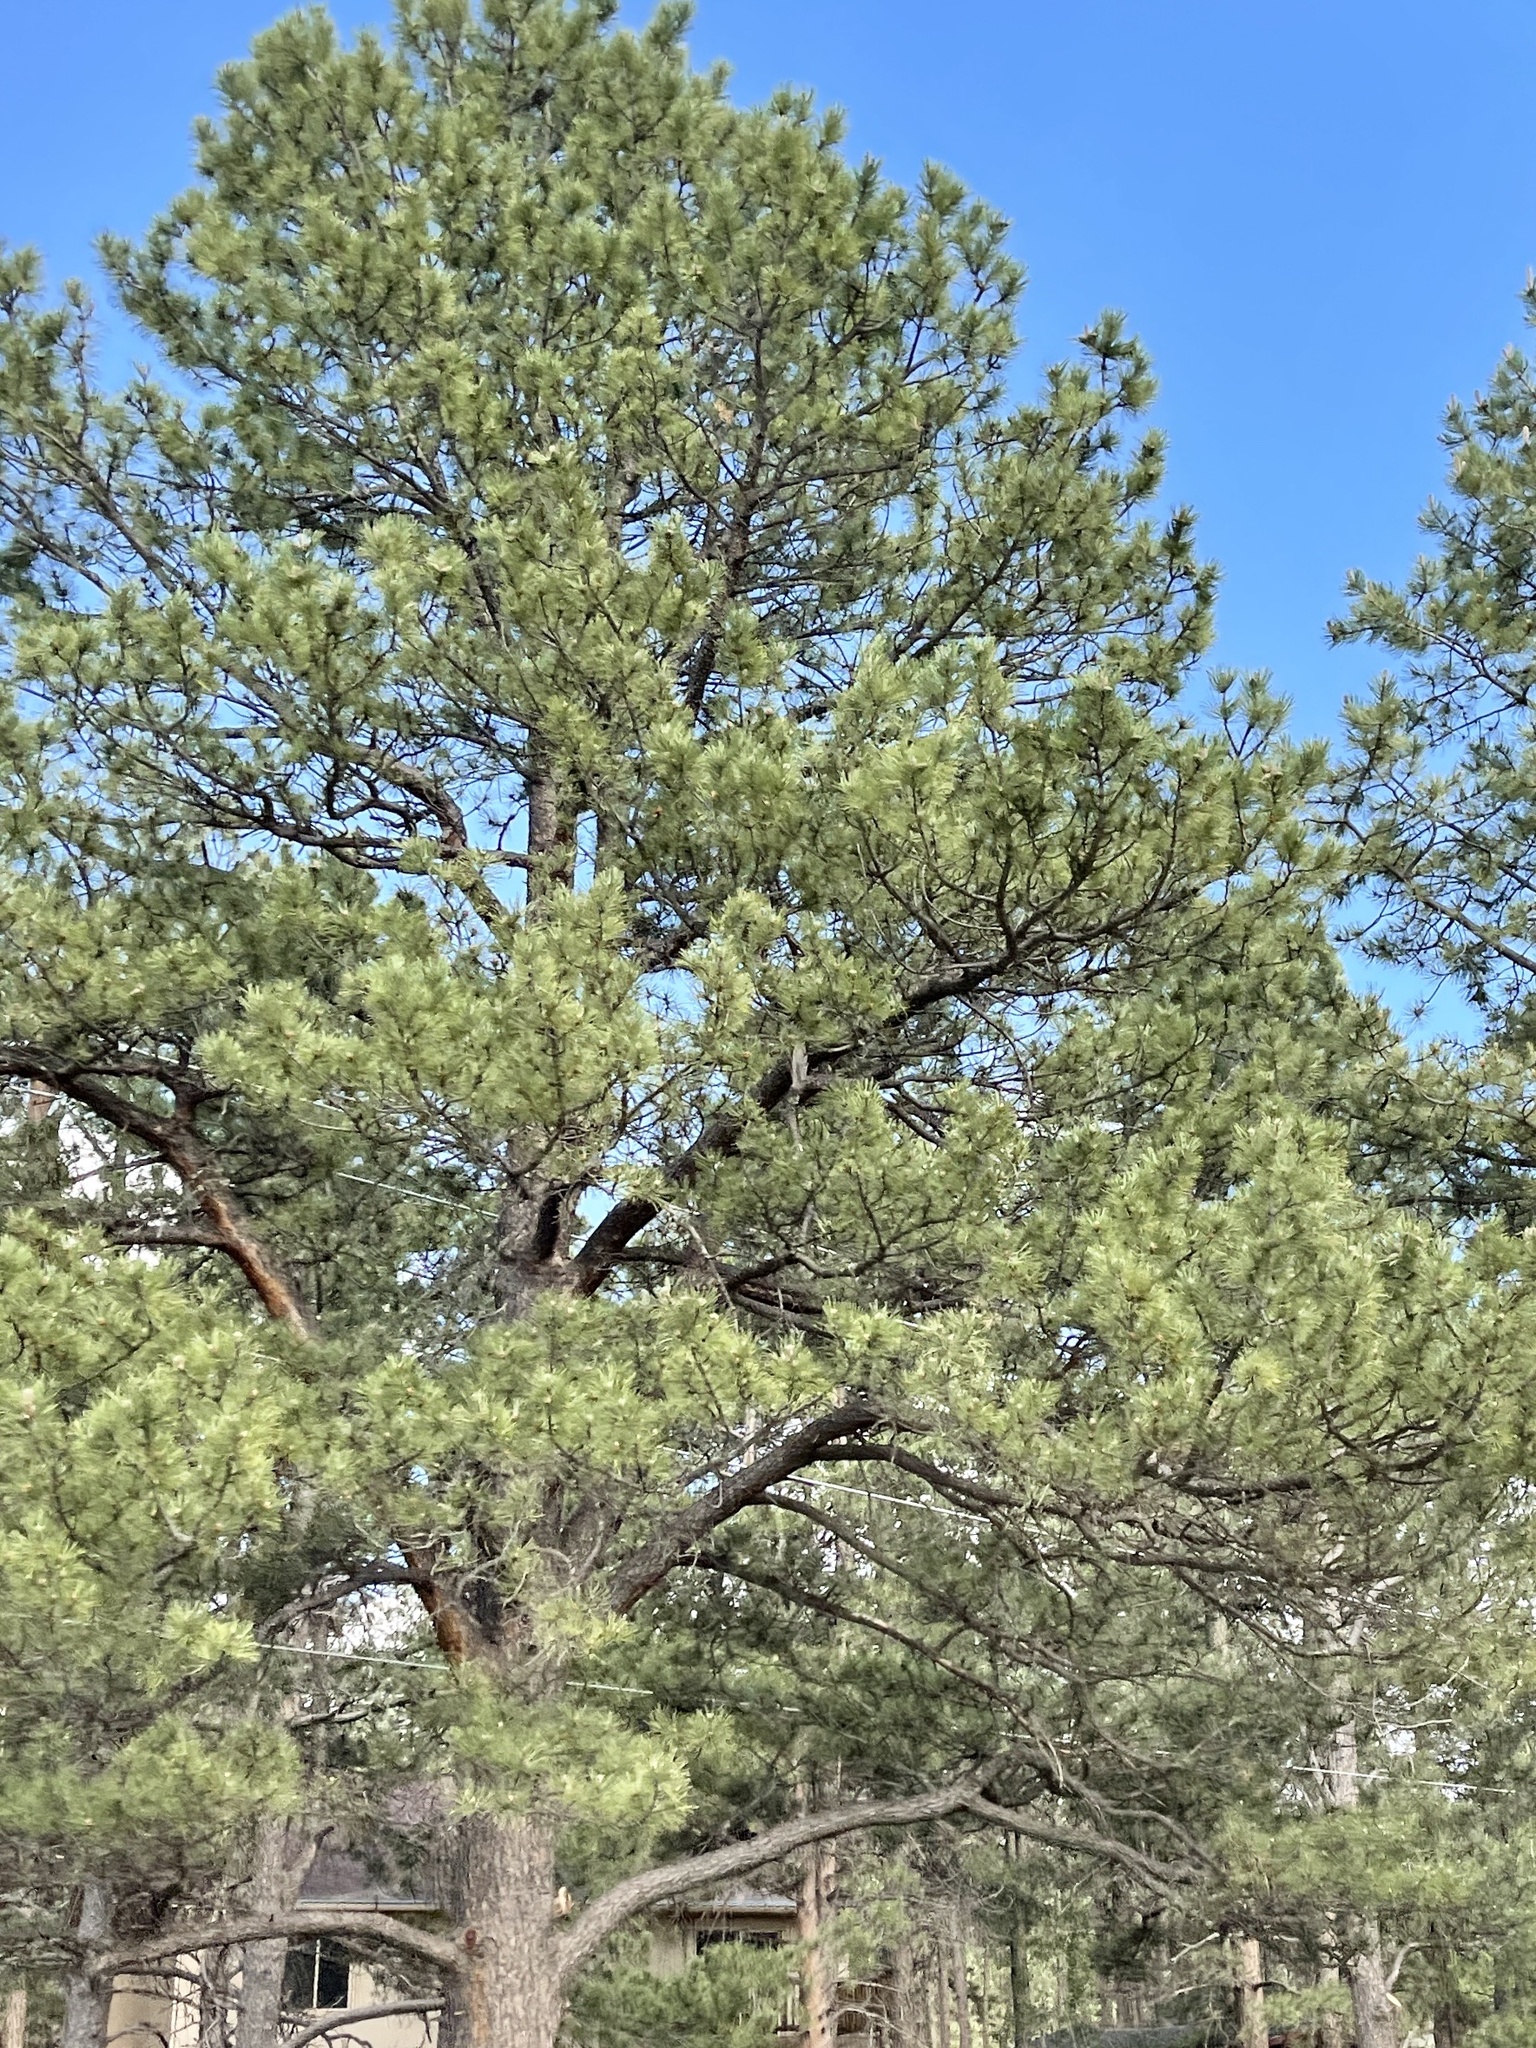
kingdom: Plantae
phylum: Tracheophyta
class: Pinopsida
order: Pinales
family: Pinaceae
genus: Pinus
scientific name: Pinus ponderosa
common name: Western yellow-pine
